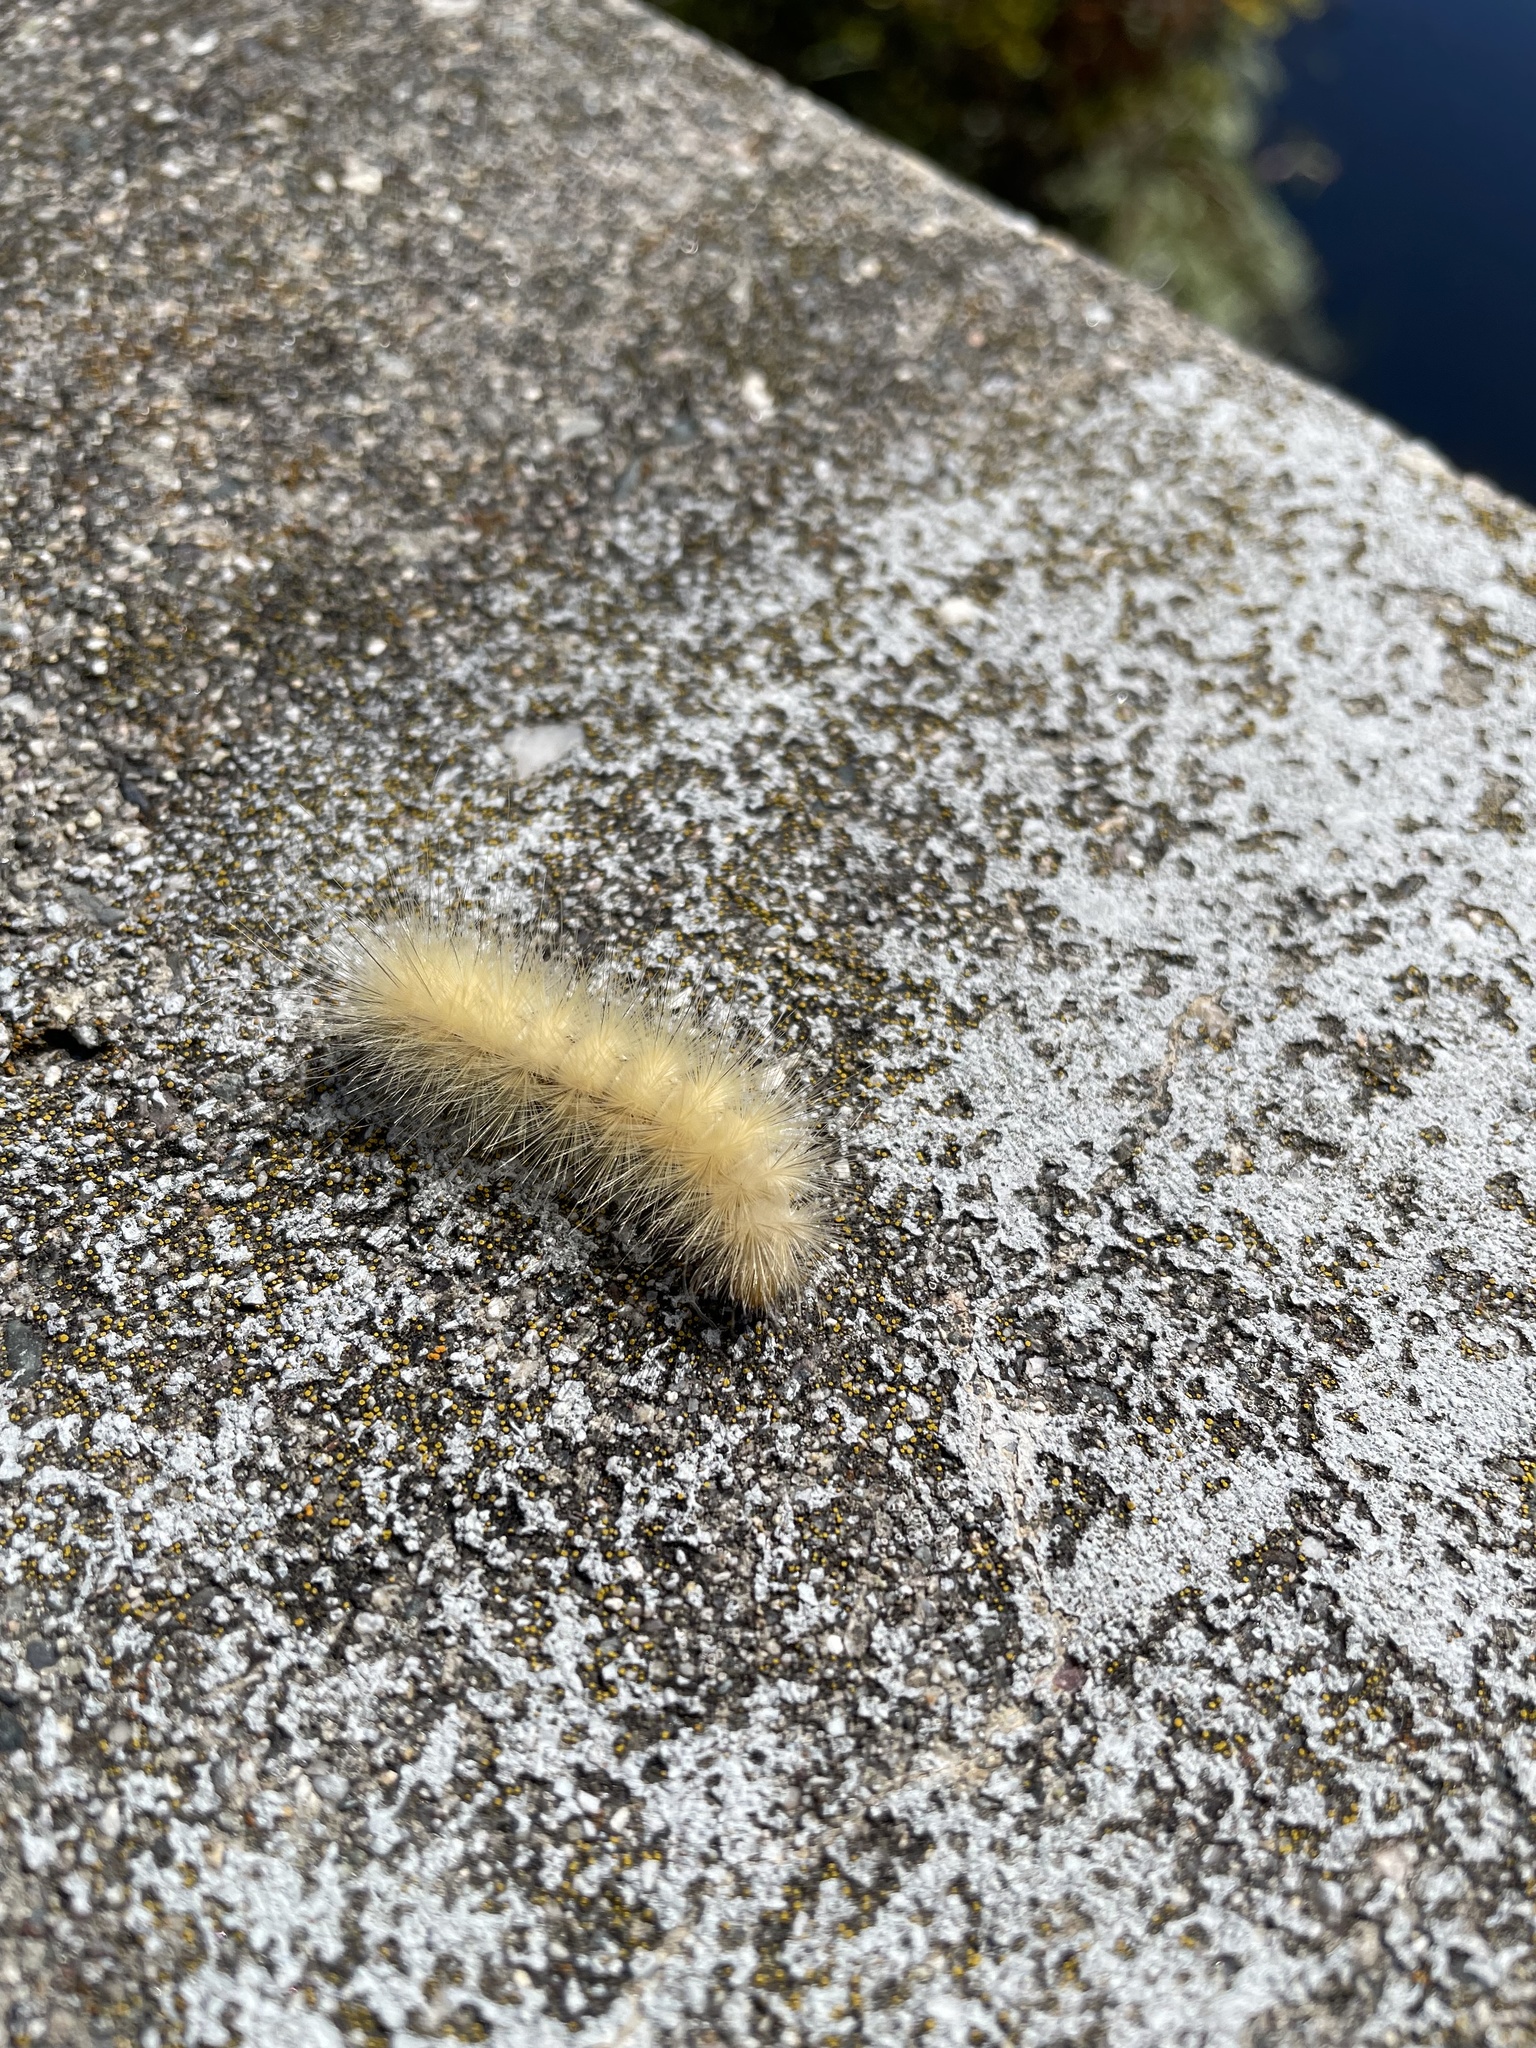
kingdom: Animalia
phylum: Arthropoda
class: Insecta
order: Lepidoptera
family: Erebidae
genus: Spilosoma
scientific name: Spilosoma virginica
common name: Virginia tiger moth
